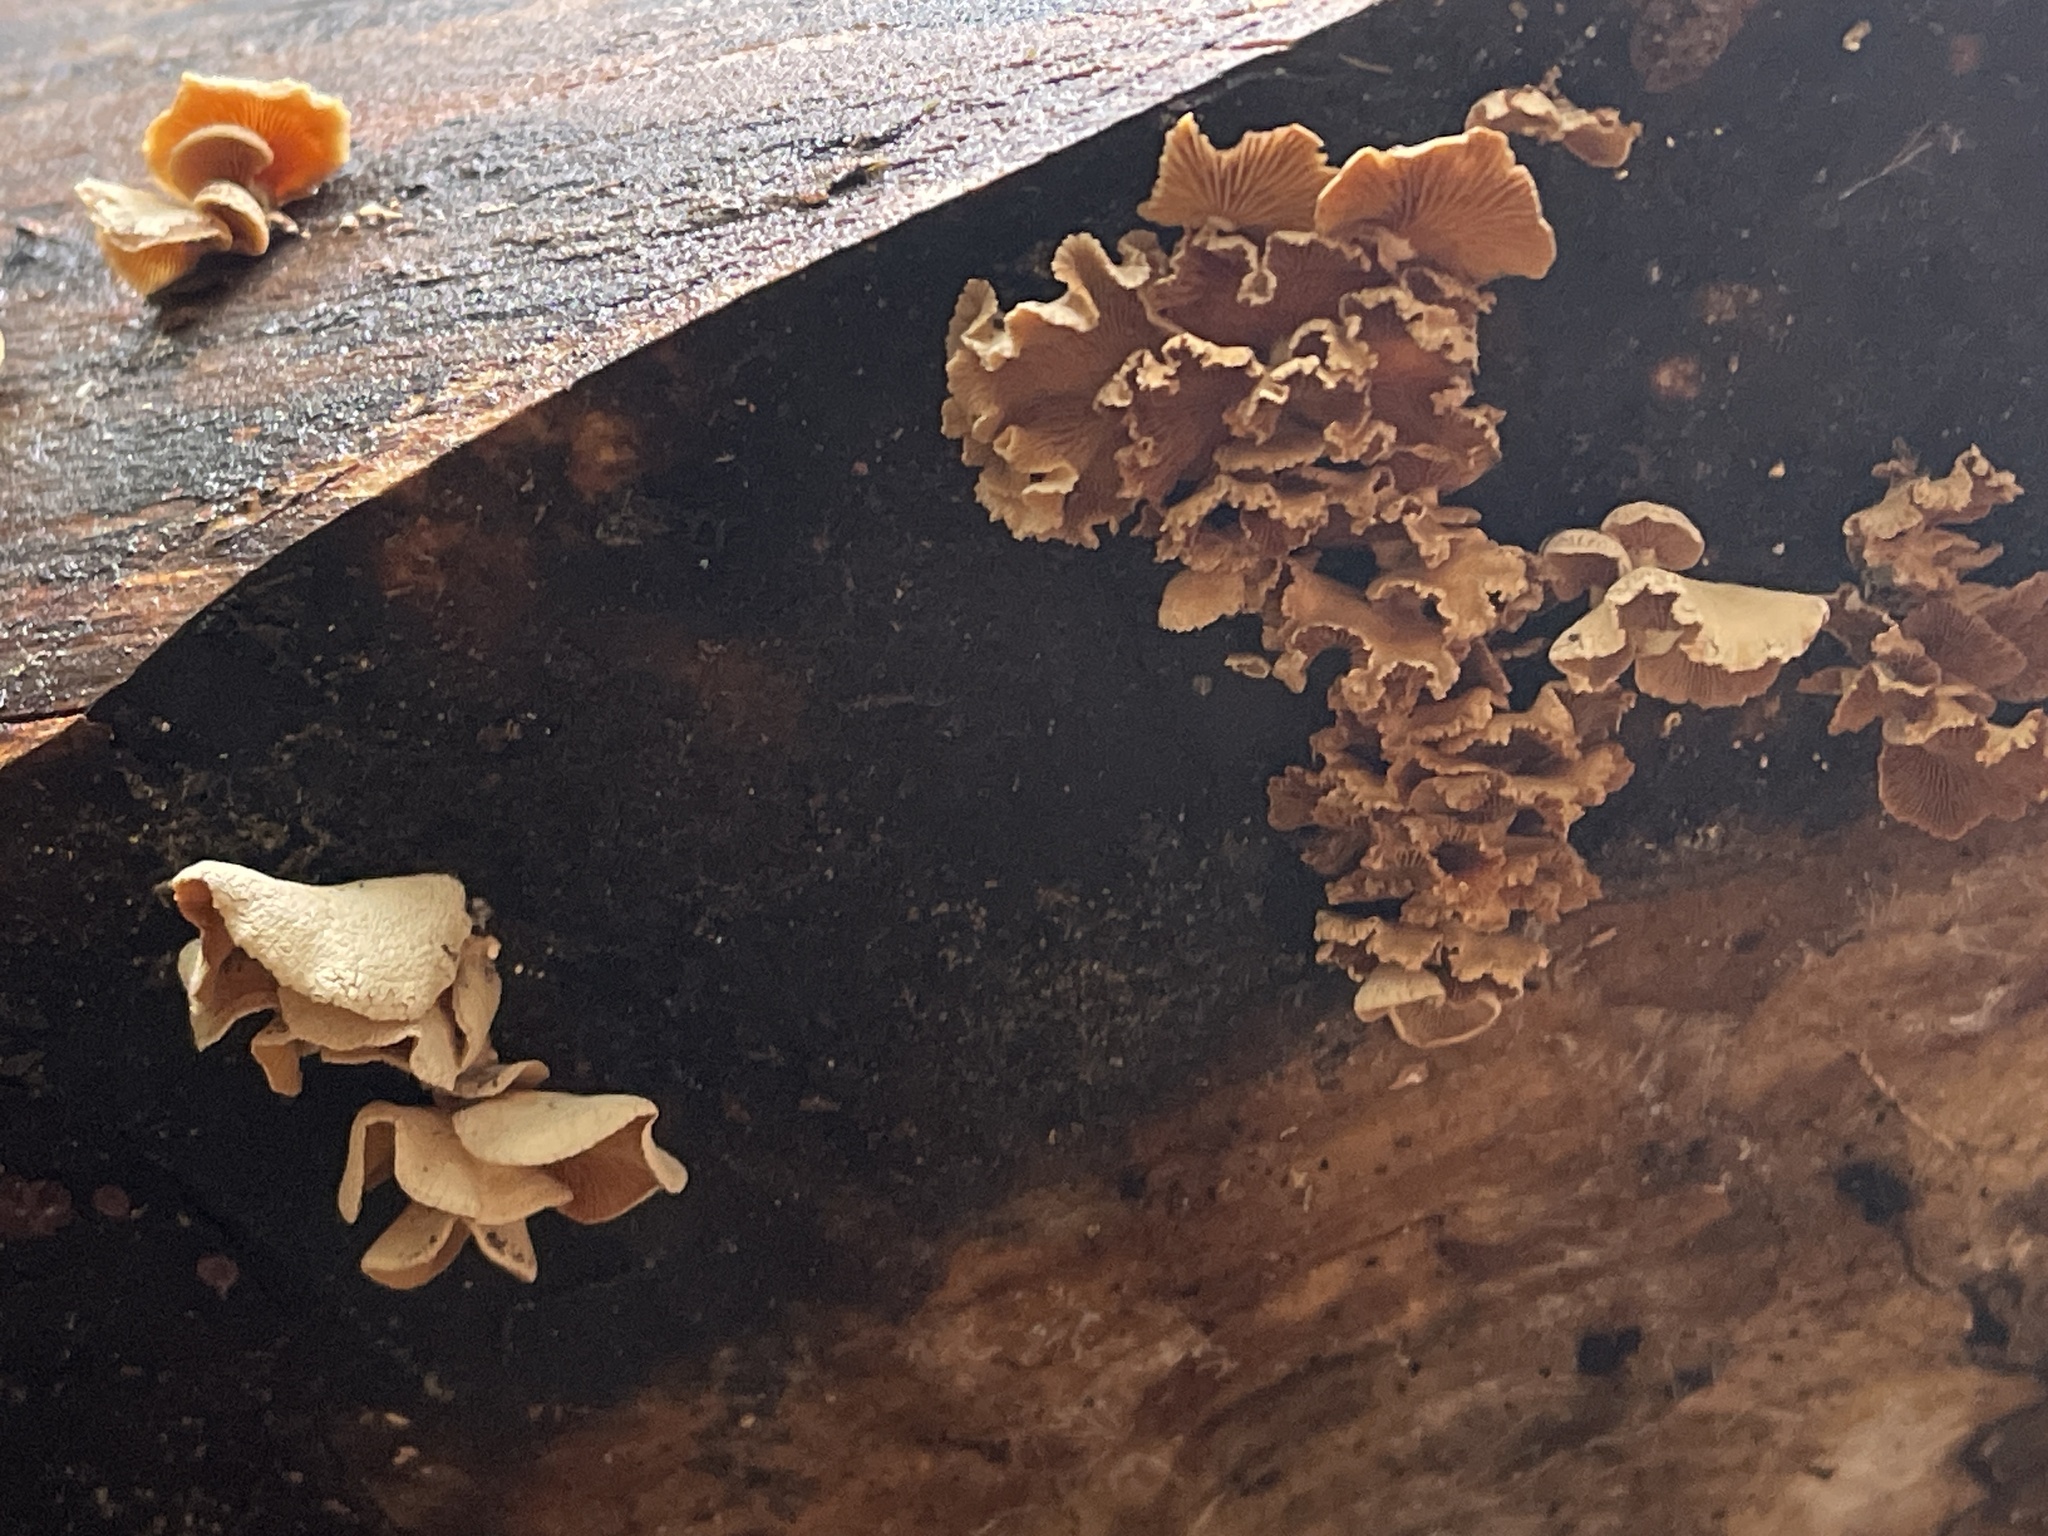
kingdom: Fungi
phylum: Basidiomycota
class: Agaricomycetes
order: Agaricales
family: Mycenaceae
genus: Panellus
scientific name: Panellus stipticus
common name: Bitter oysterling
